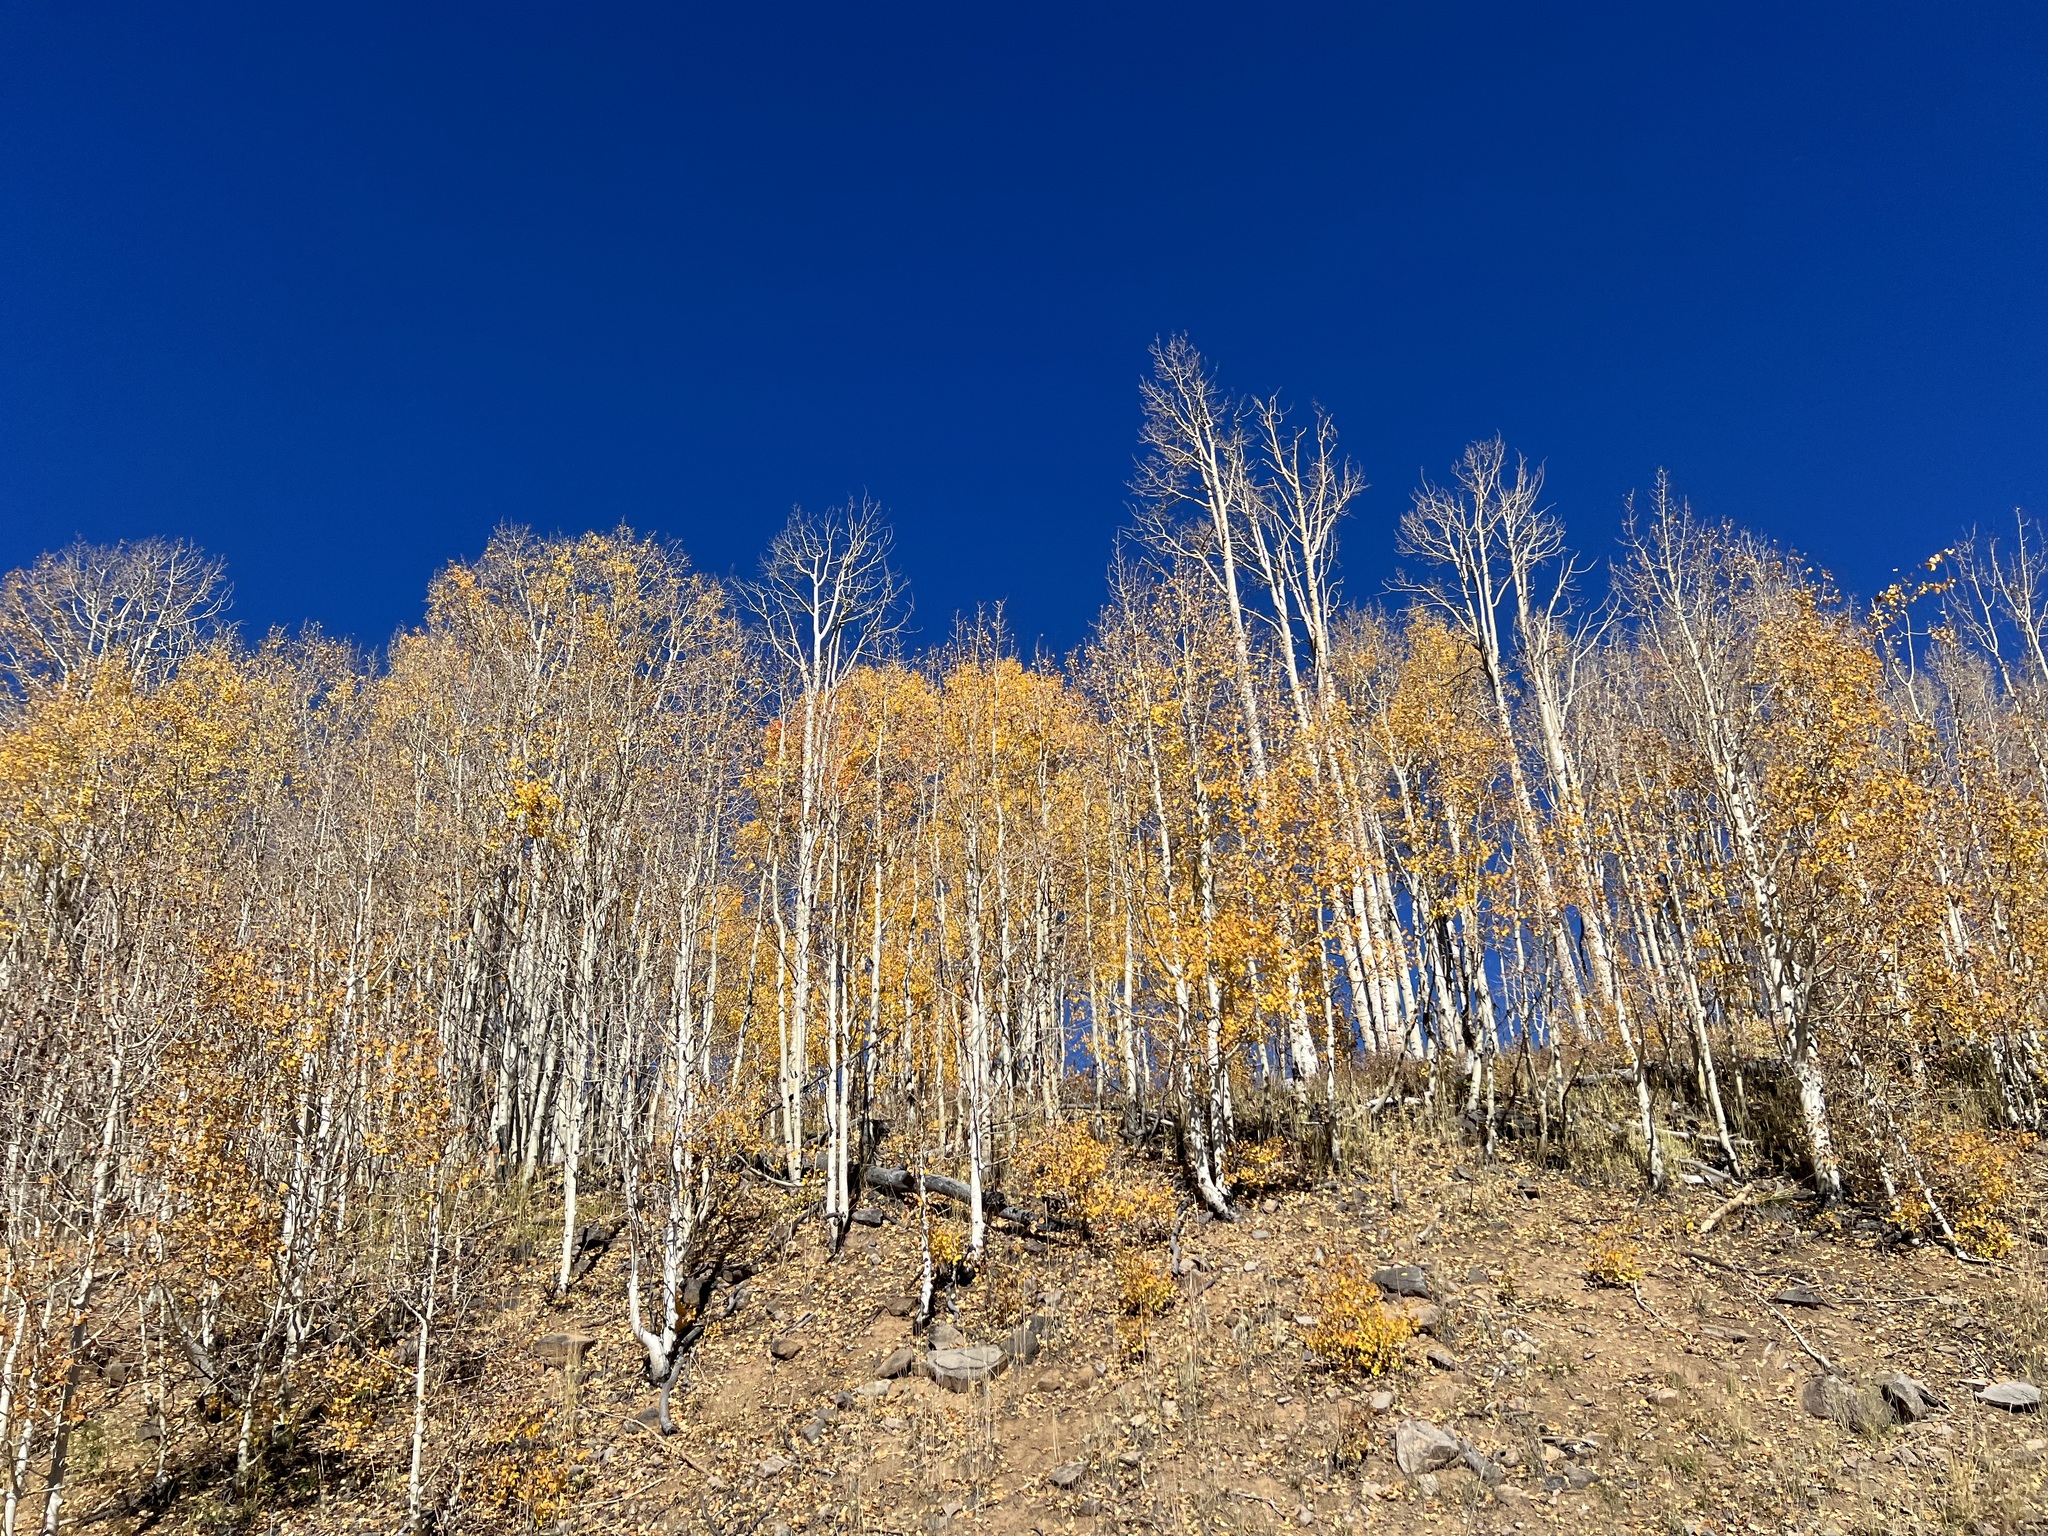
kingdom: Plantae
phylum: Tracheophyta
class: Magnoliopsida
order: Malpighiales
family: Salicaceae
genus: Populus
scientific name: Populus tremuloides
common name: Quaking aspen
